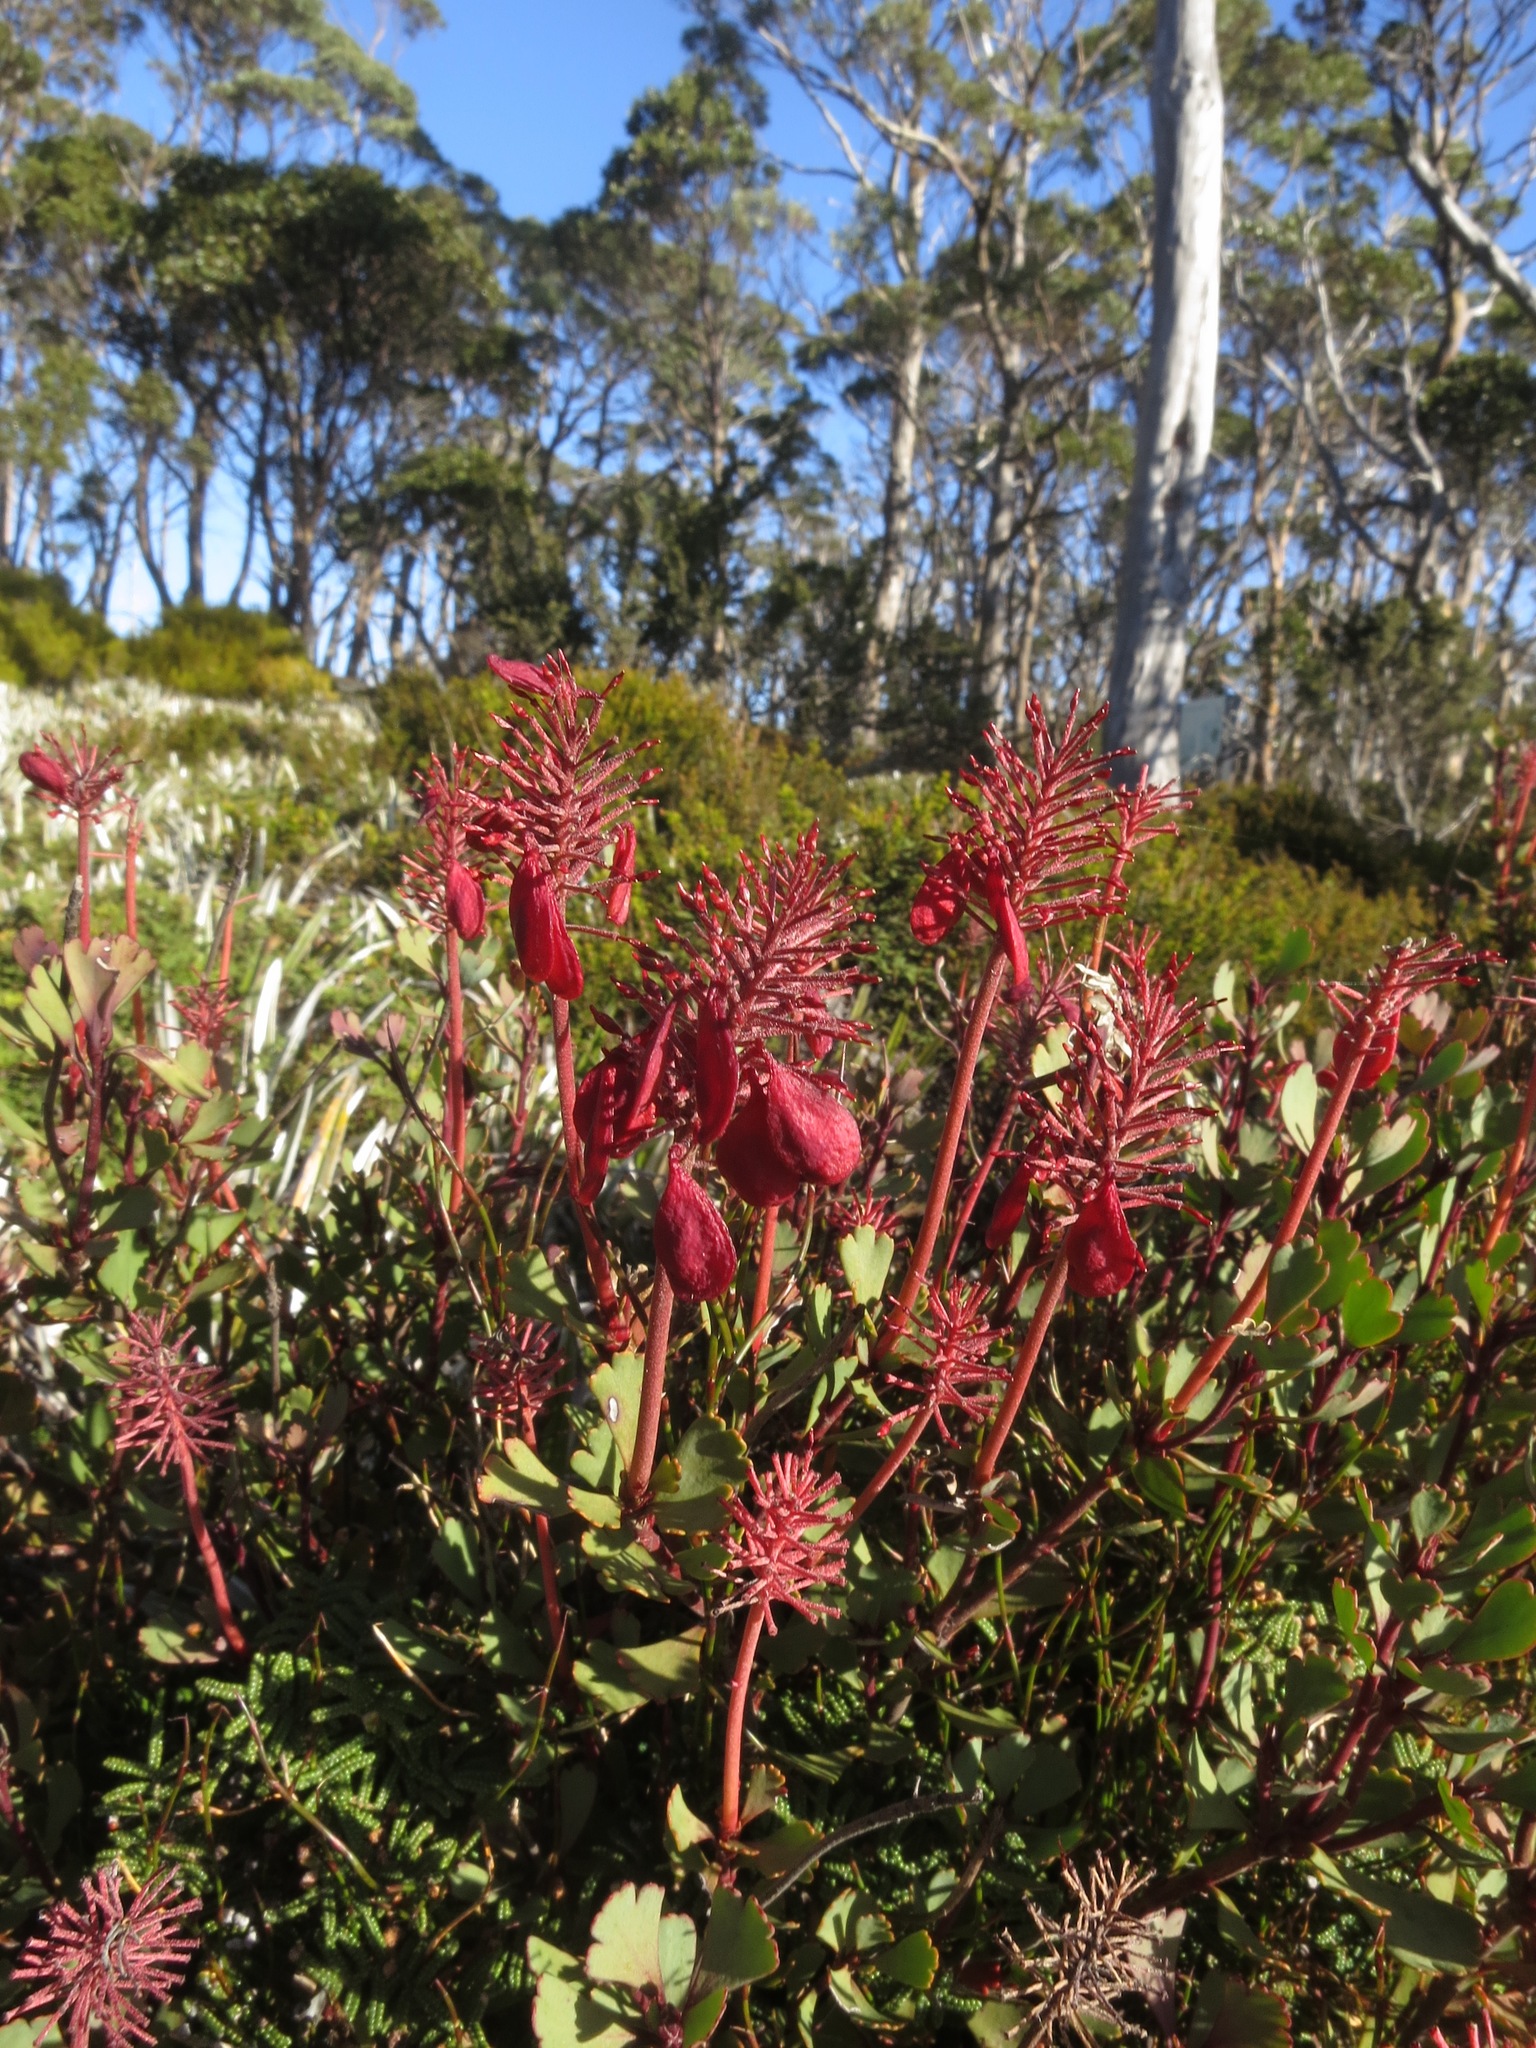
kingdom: Plantae
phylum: Tracheophyta
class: Magnoliopsida
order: Proteales
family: Proteaceae
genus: Bellendena
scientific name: Bellendena montana
